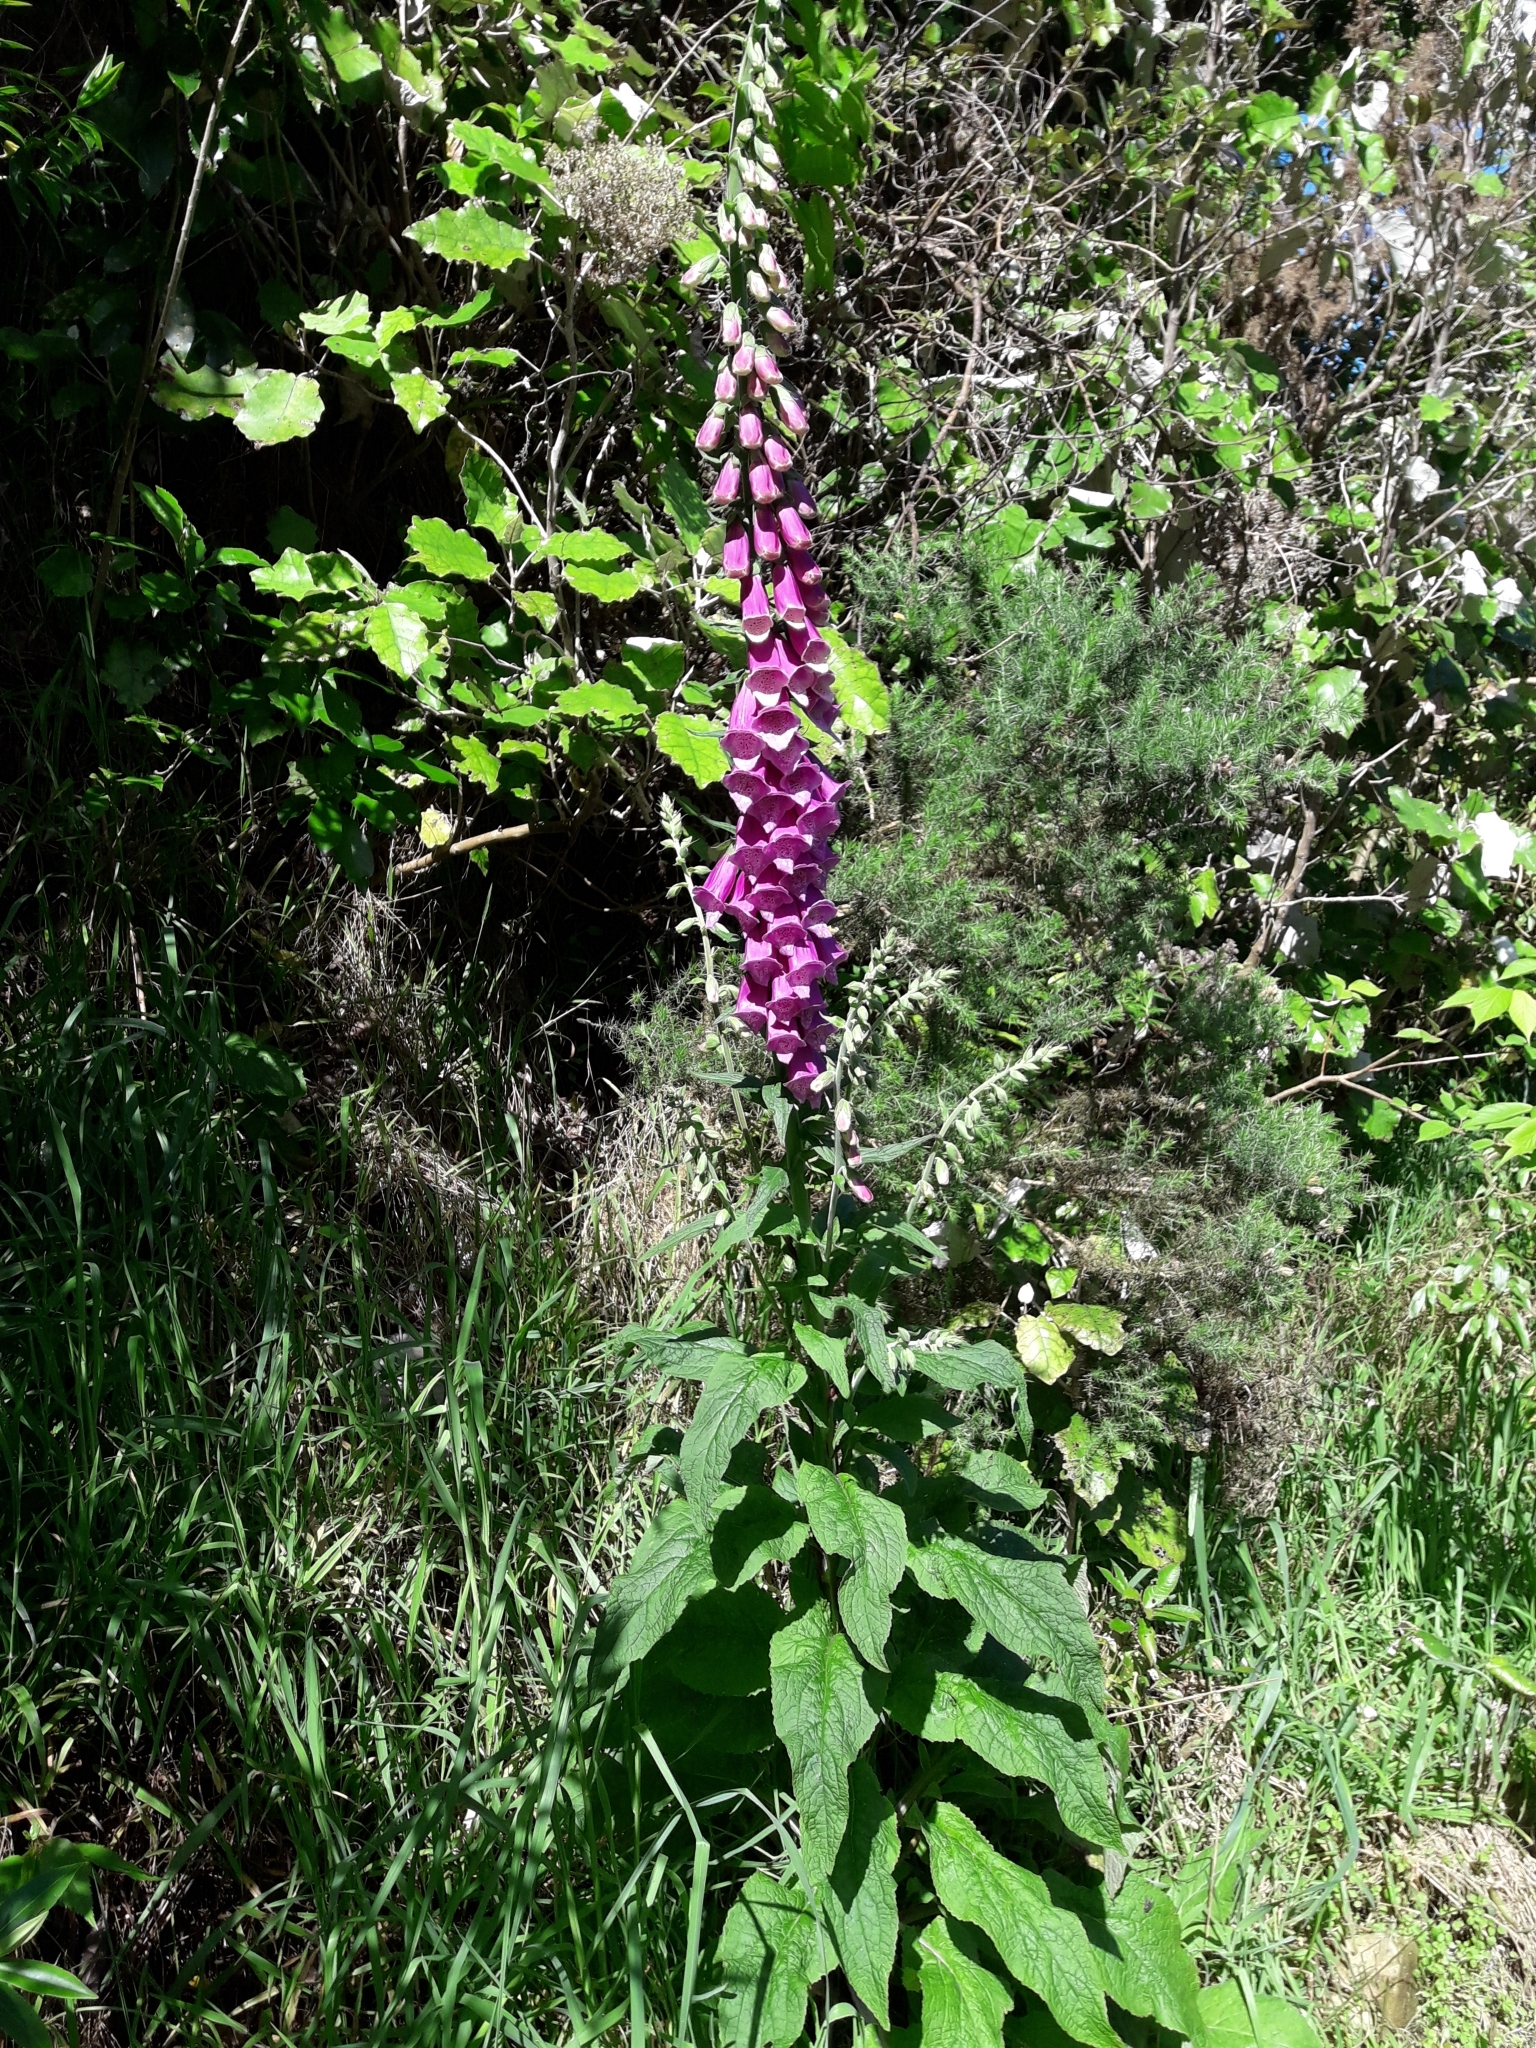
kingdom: Plantae
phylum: Tracheophyta
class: Magnoliopsida
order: Lamiales
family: Plantaginaceae
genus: Digitalis
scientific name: Digitalis purpurea
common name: Foxglove
